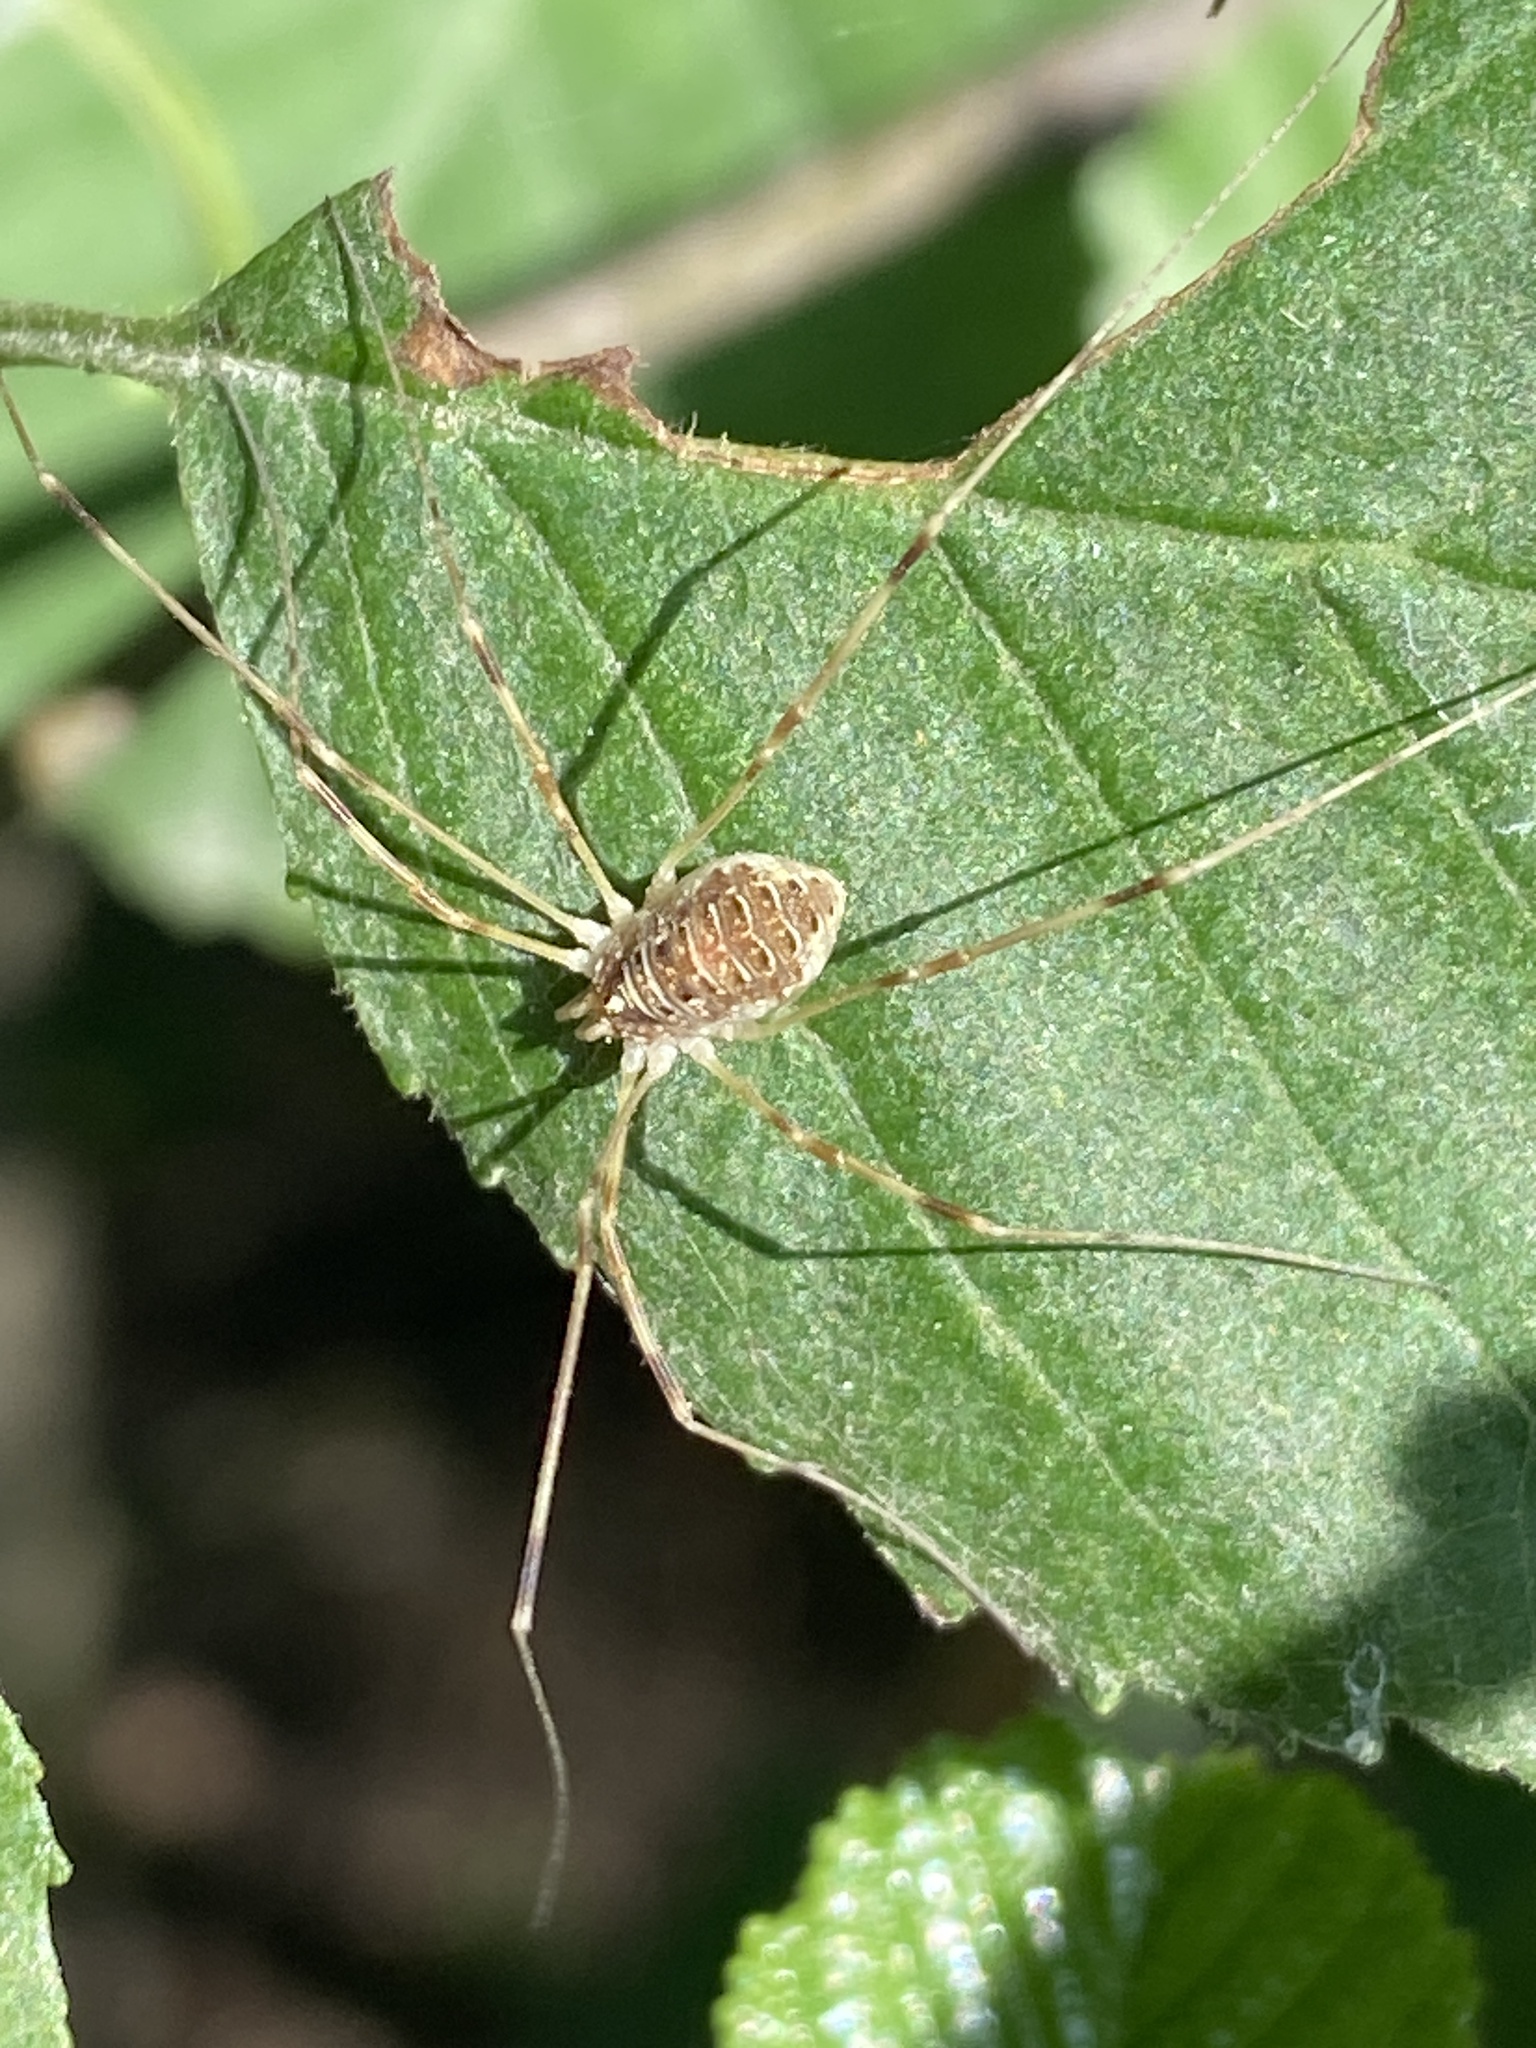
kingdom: Animalia
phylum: Arthropoda
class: Arachnida
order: Opiliones
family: Phalangiidae
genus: Opilio
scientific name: Opilio canestrinii
